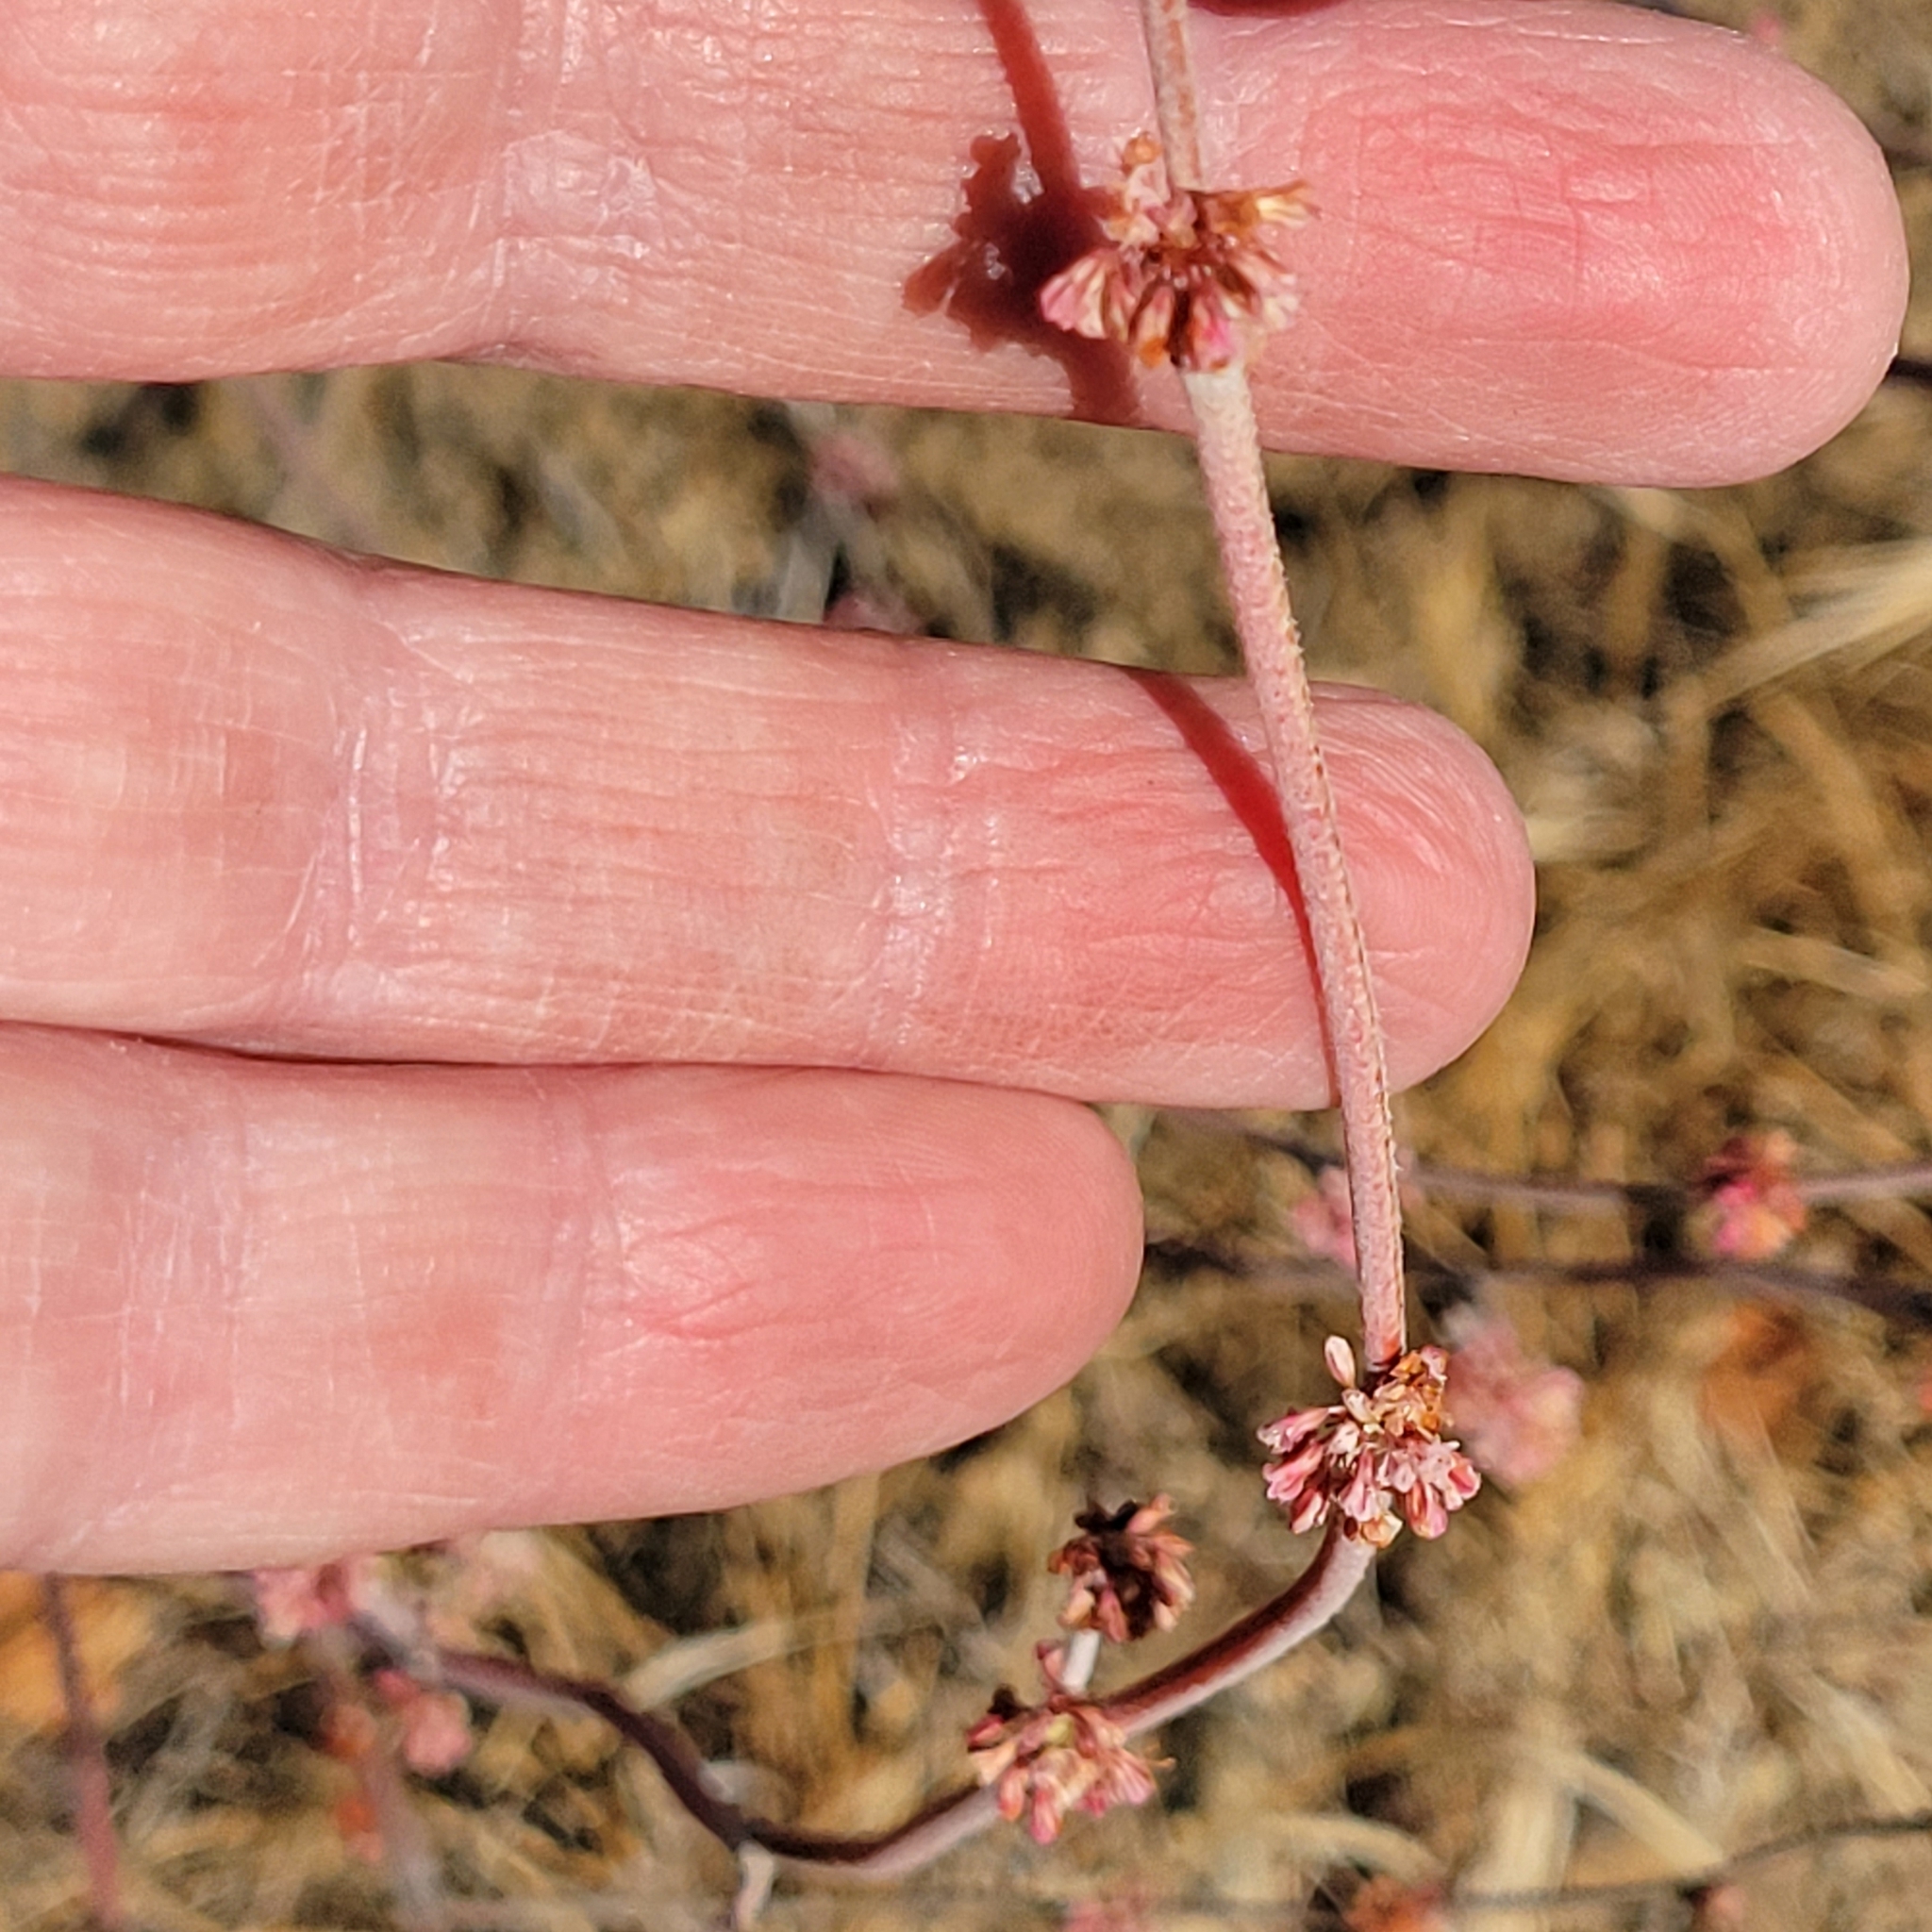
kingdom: Plantae
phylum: Tracheophyta
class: Magnoliopsida
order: Caryophyllales
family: Polygonaceae
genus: Eriogonum
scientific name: Eriogonum elongatum
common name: Long-stem wild buckwheat
